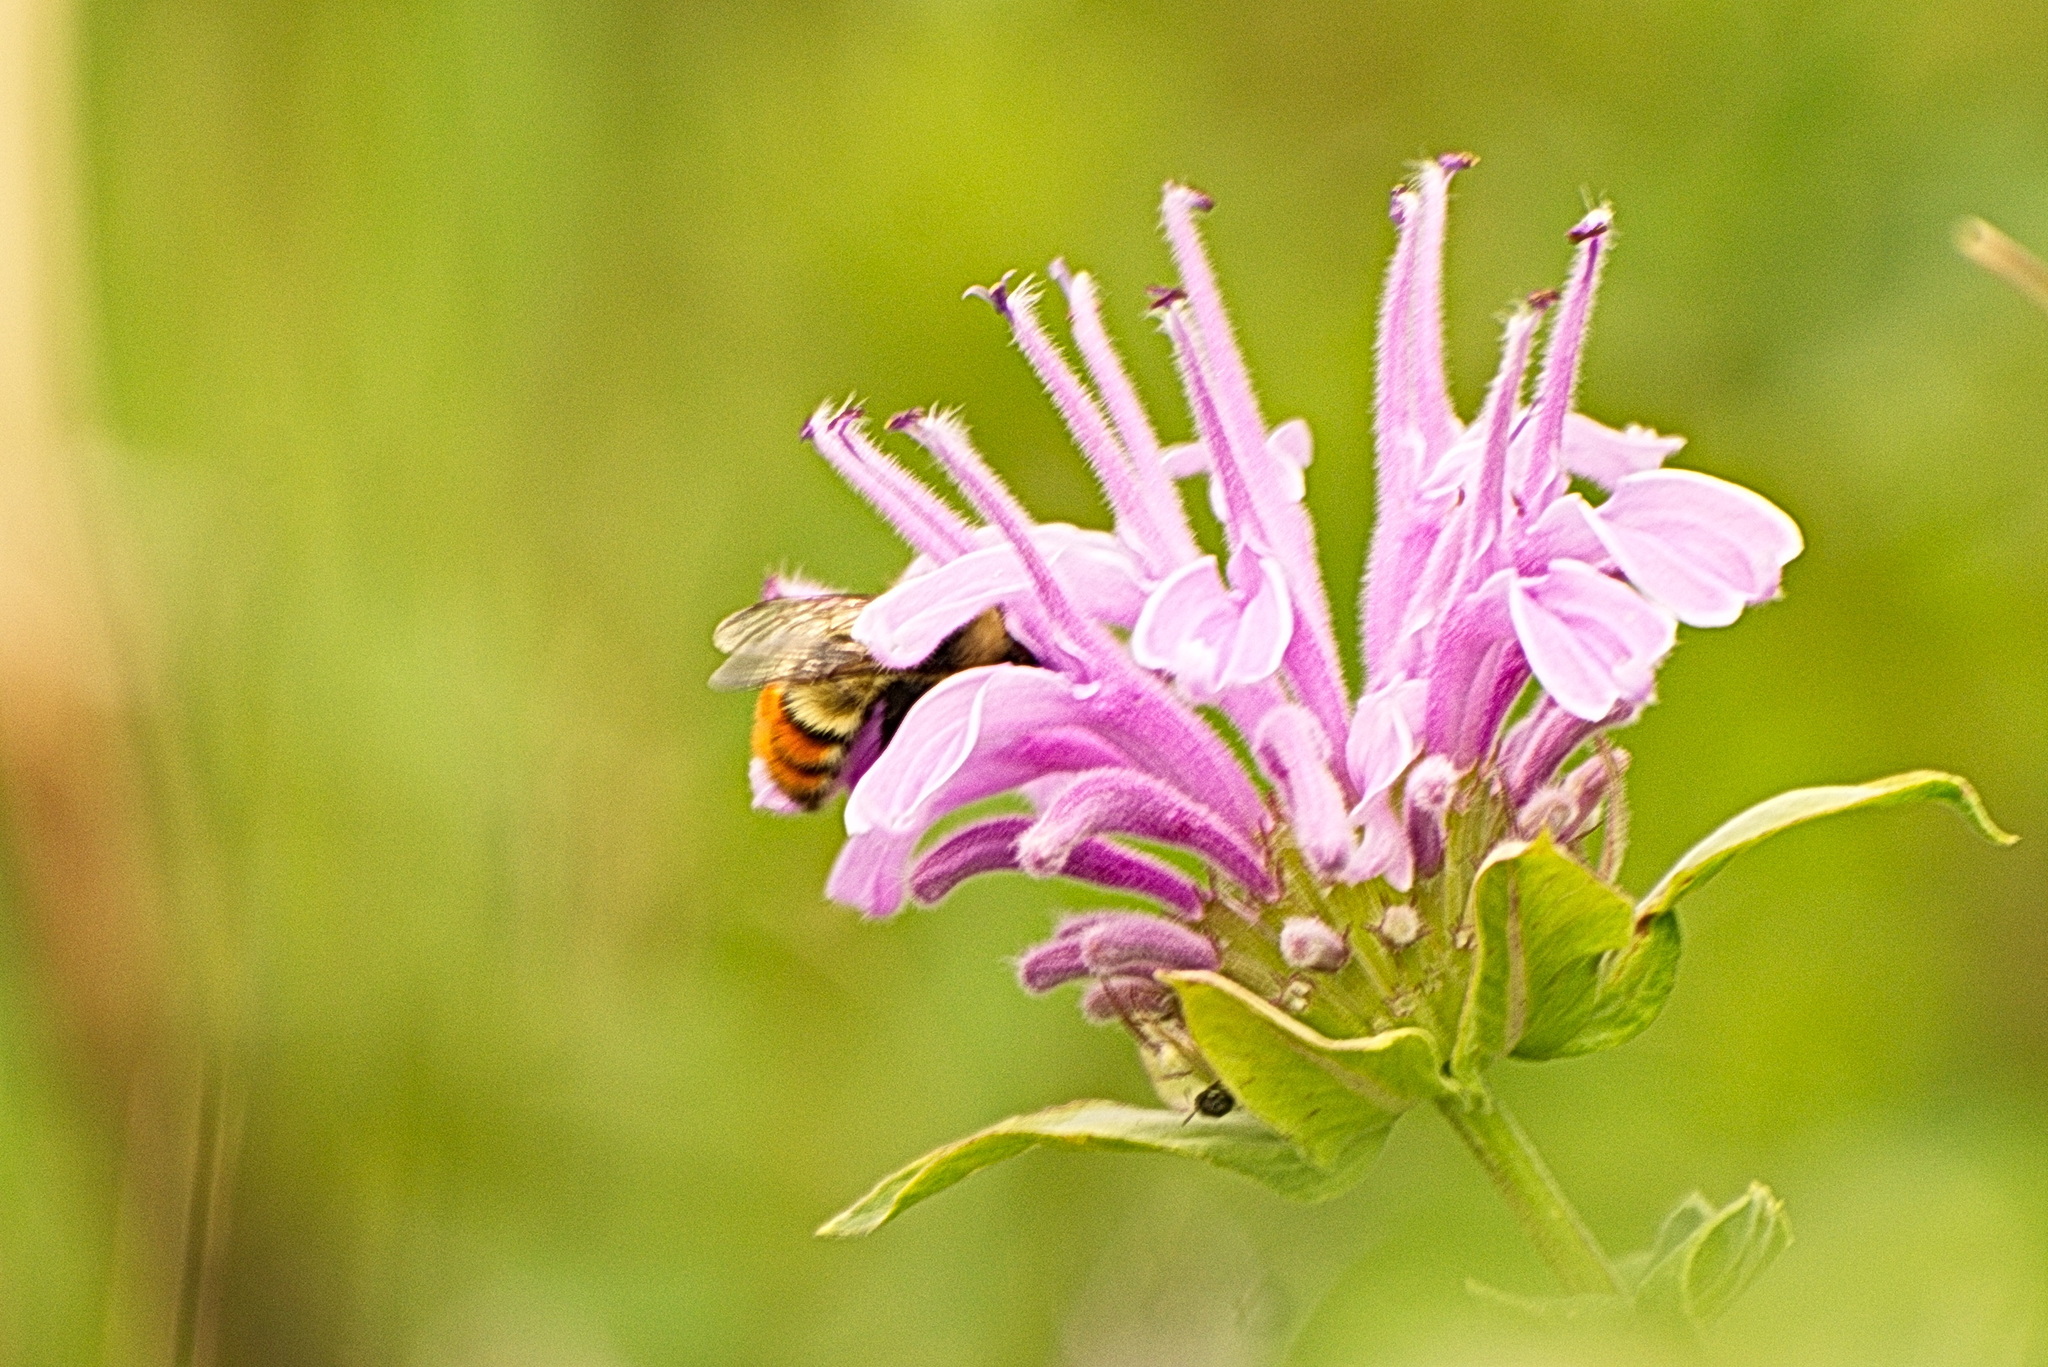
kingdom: Animalia
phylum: Arthropoda
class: Insecta
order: Hymenoptera
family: Apidae
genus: Bombus
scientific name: Bombus centralis
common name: Central bumble bee
